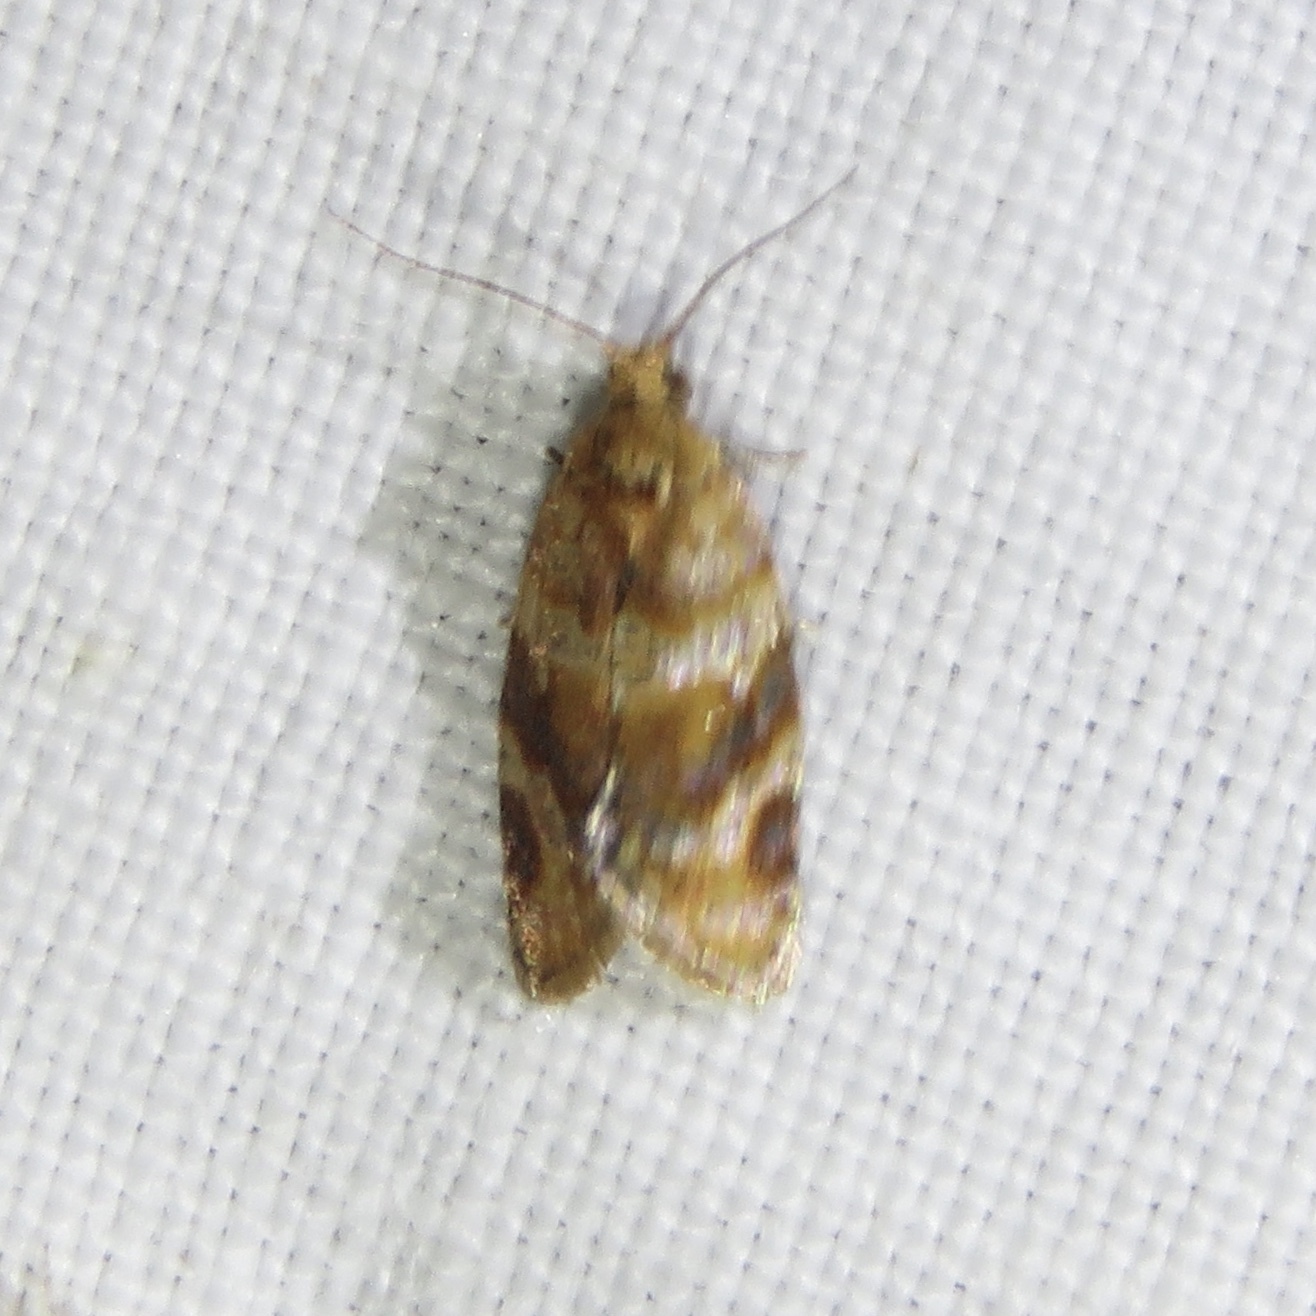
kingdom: Animalia
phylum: Arthropoda
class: Insecta
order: Lepidoptera
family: Tortricidae
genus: Argyrotaenia
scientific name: Argyrotaenia velutinana
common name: Red-banded leafroller moth
